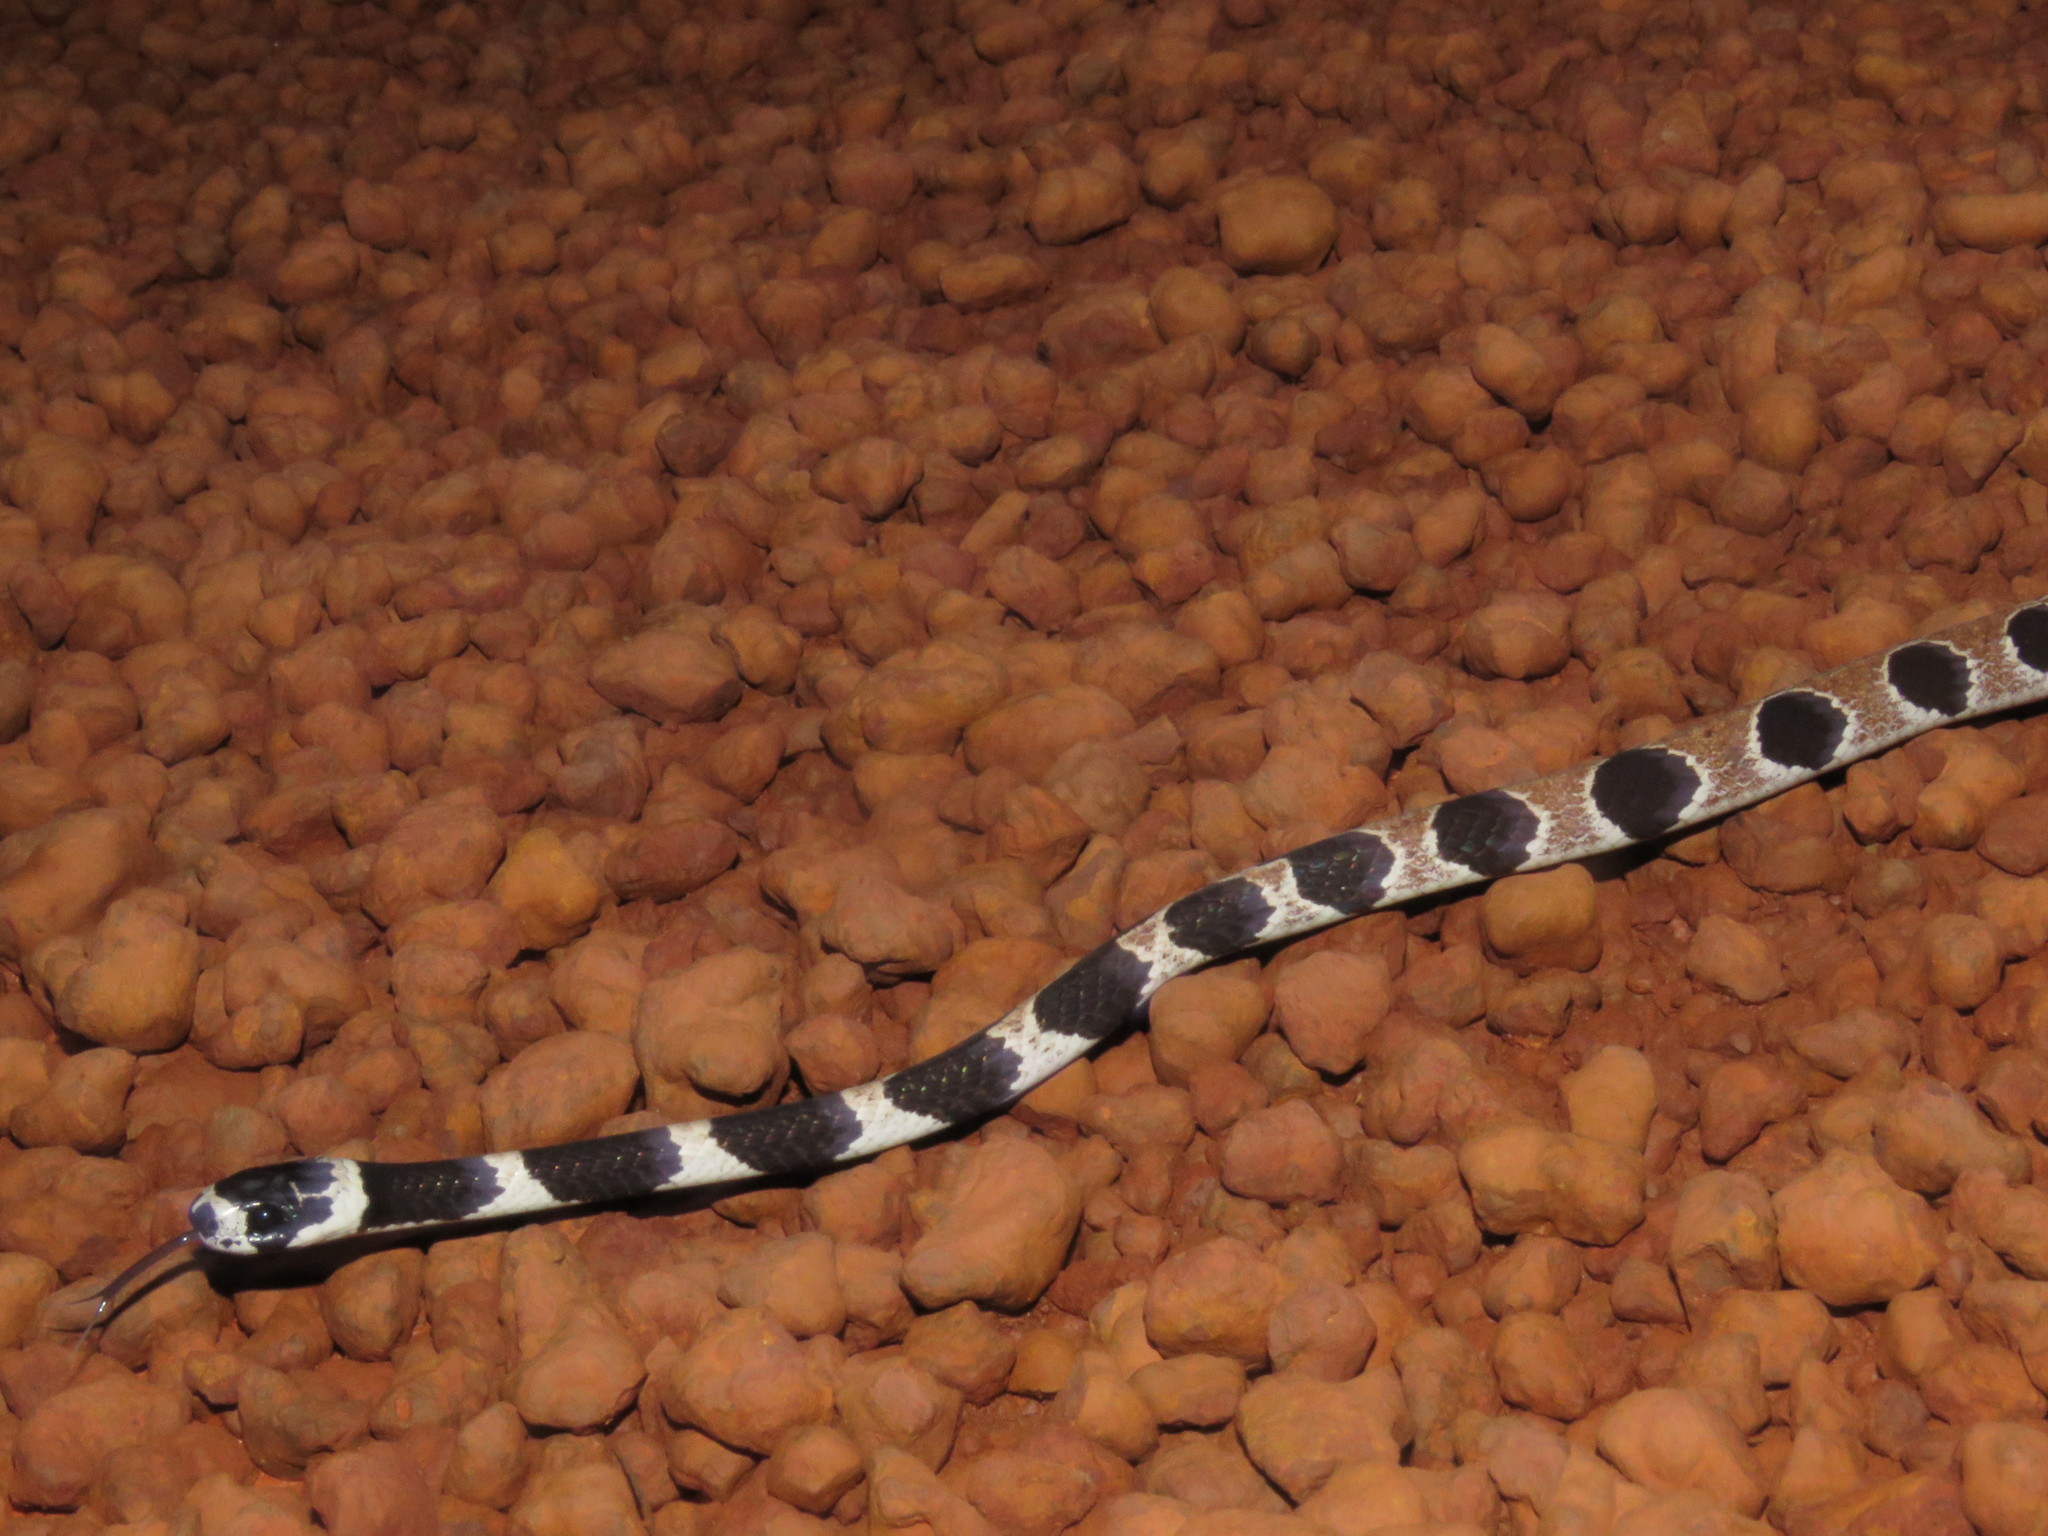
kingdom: Animalia
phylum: Chordata
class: Squamata
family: Colubridae
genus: Dipsas
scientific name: Dipsas catesbyi
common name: Catesby's snail-eater
